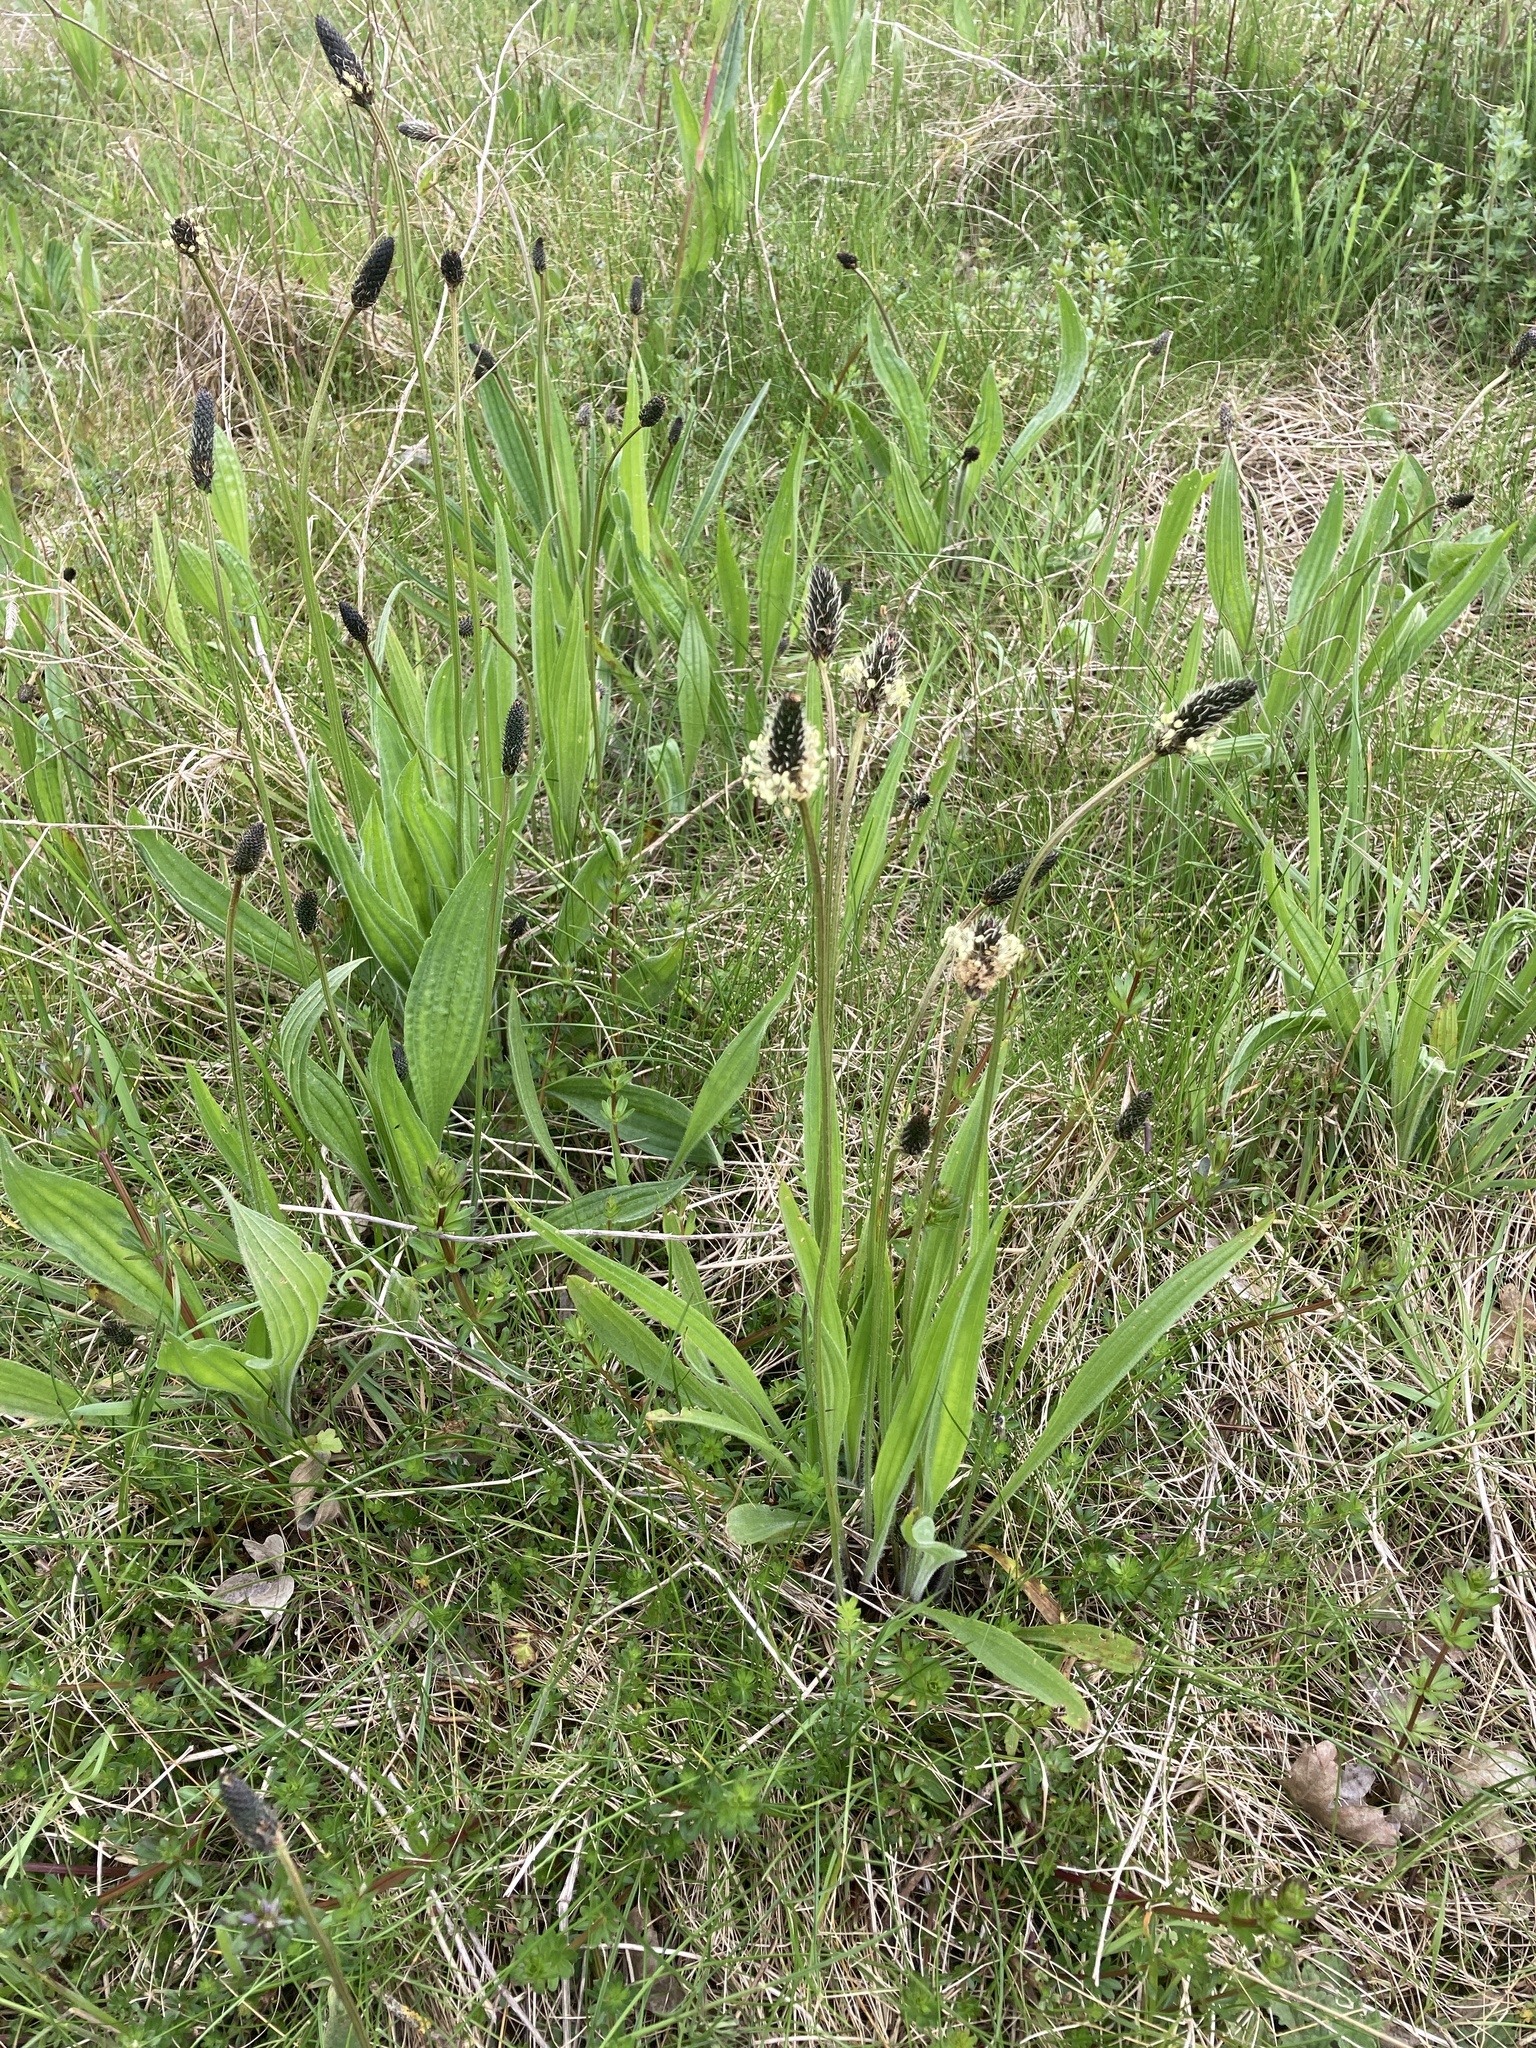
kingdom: Plantae
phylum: Tracheophyta
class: Magnoliopsida
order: Lamiales
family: Plantaginaceae
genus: Plantago
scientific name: Plantago lanceolata
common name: Ribwort plantain
